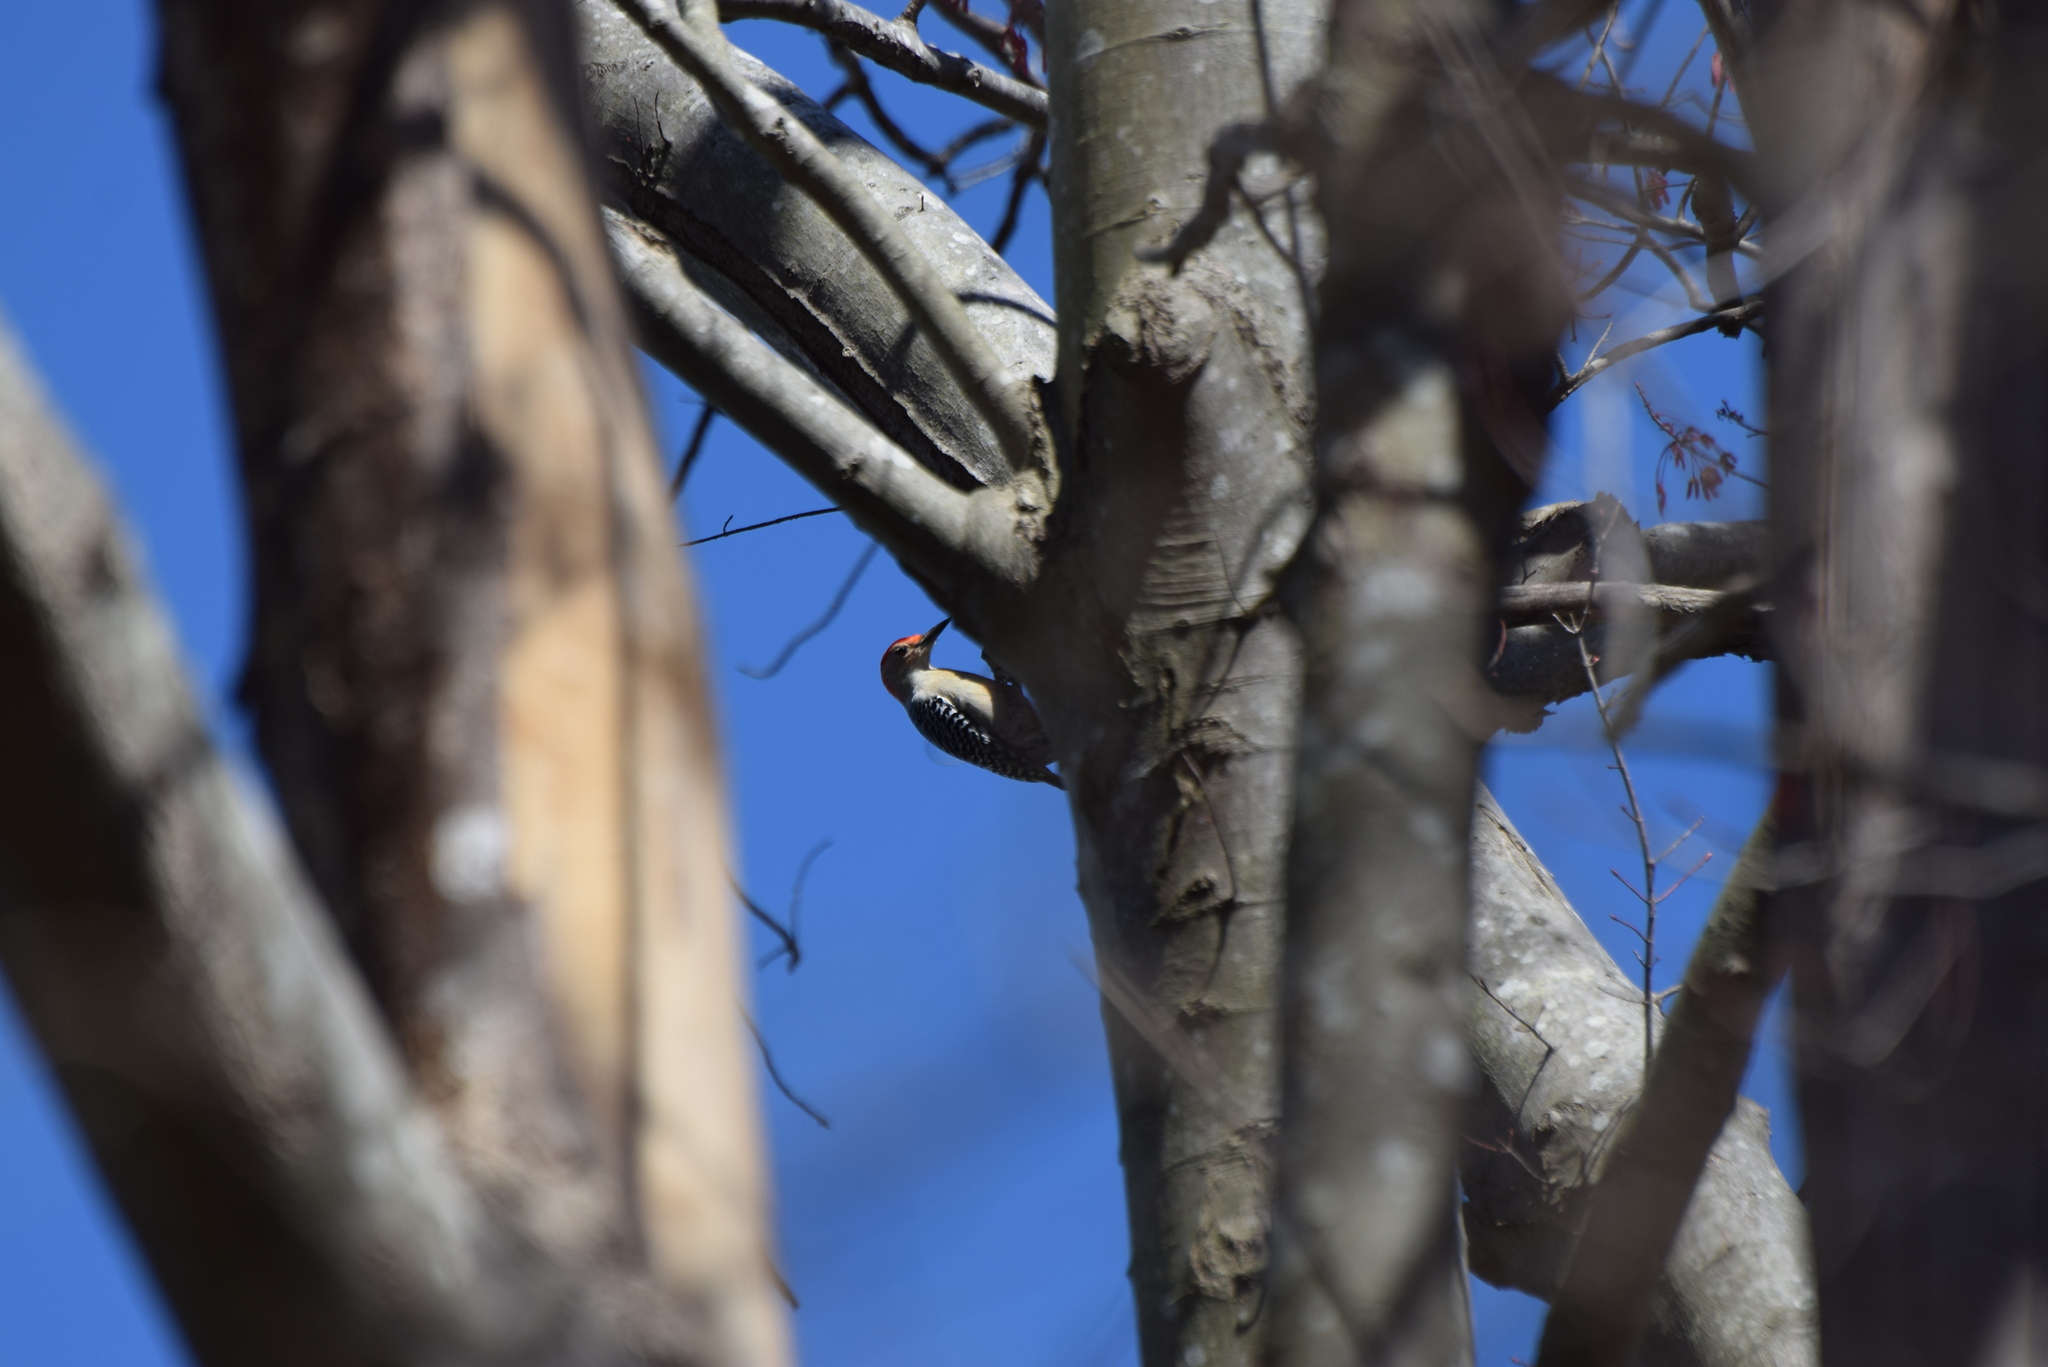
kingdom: Animalia
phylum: Chordata
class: Aves
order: Piciformes
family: Picidae
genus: Melanerpes
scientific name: Melanerpes carolinus
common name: Red-bellied woodpecker
